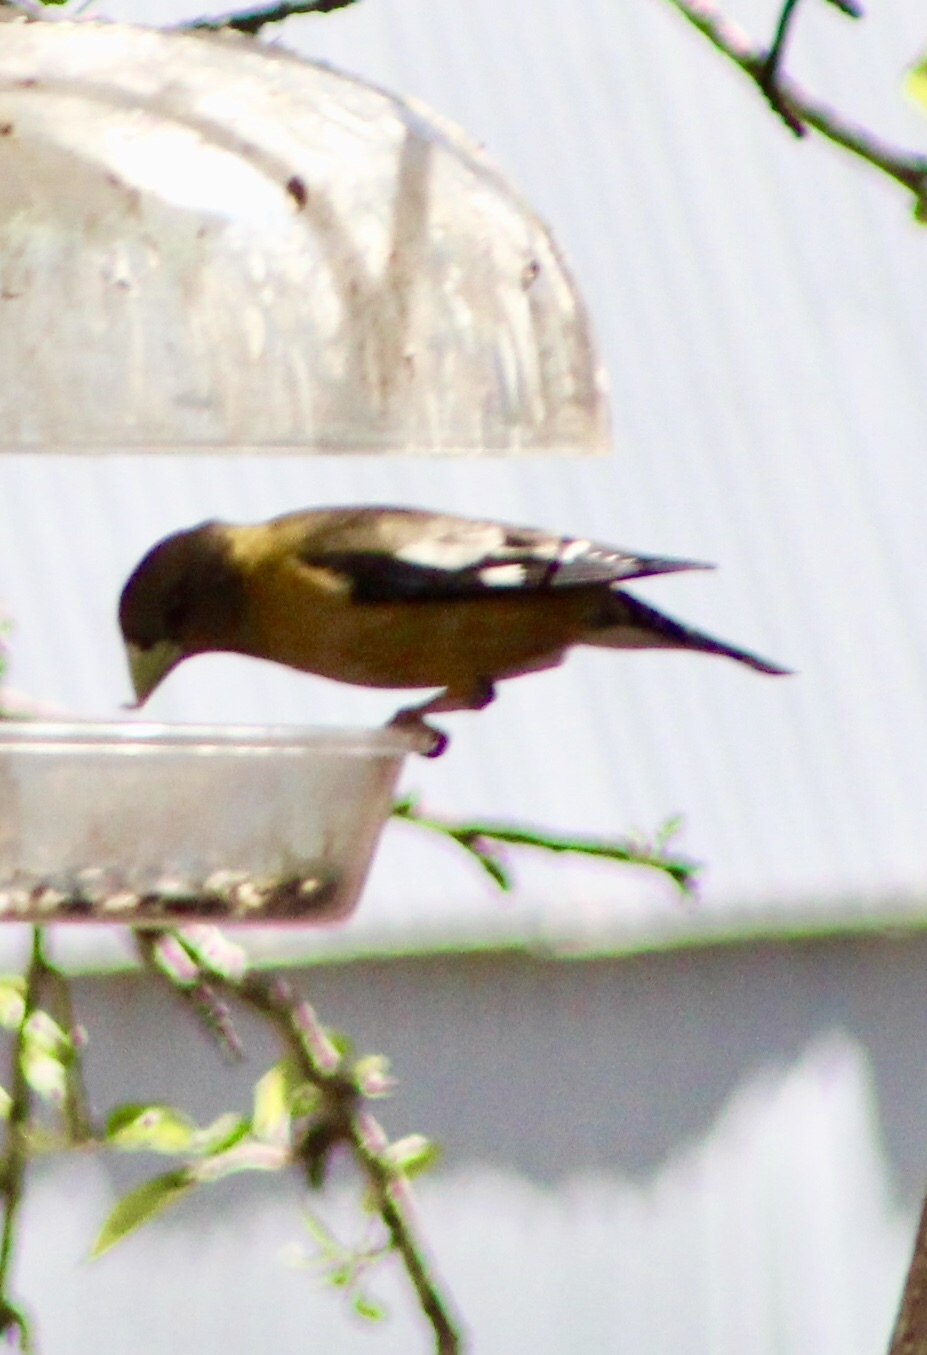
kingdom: Animalia
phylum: Chordata
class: Aves
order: Passeriformes
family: Fringillidae
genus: Hesperiphona
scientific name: Hesperiphona vespertina
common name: Evening grosbeak
